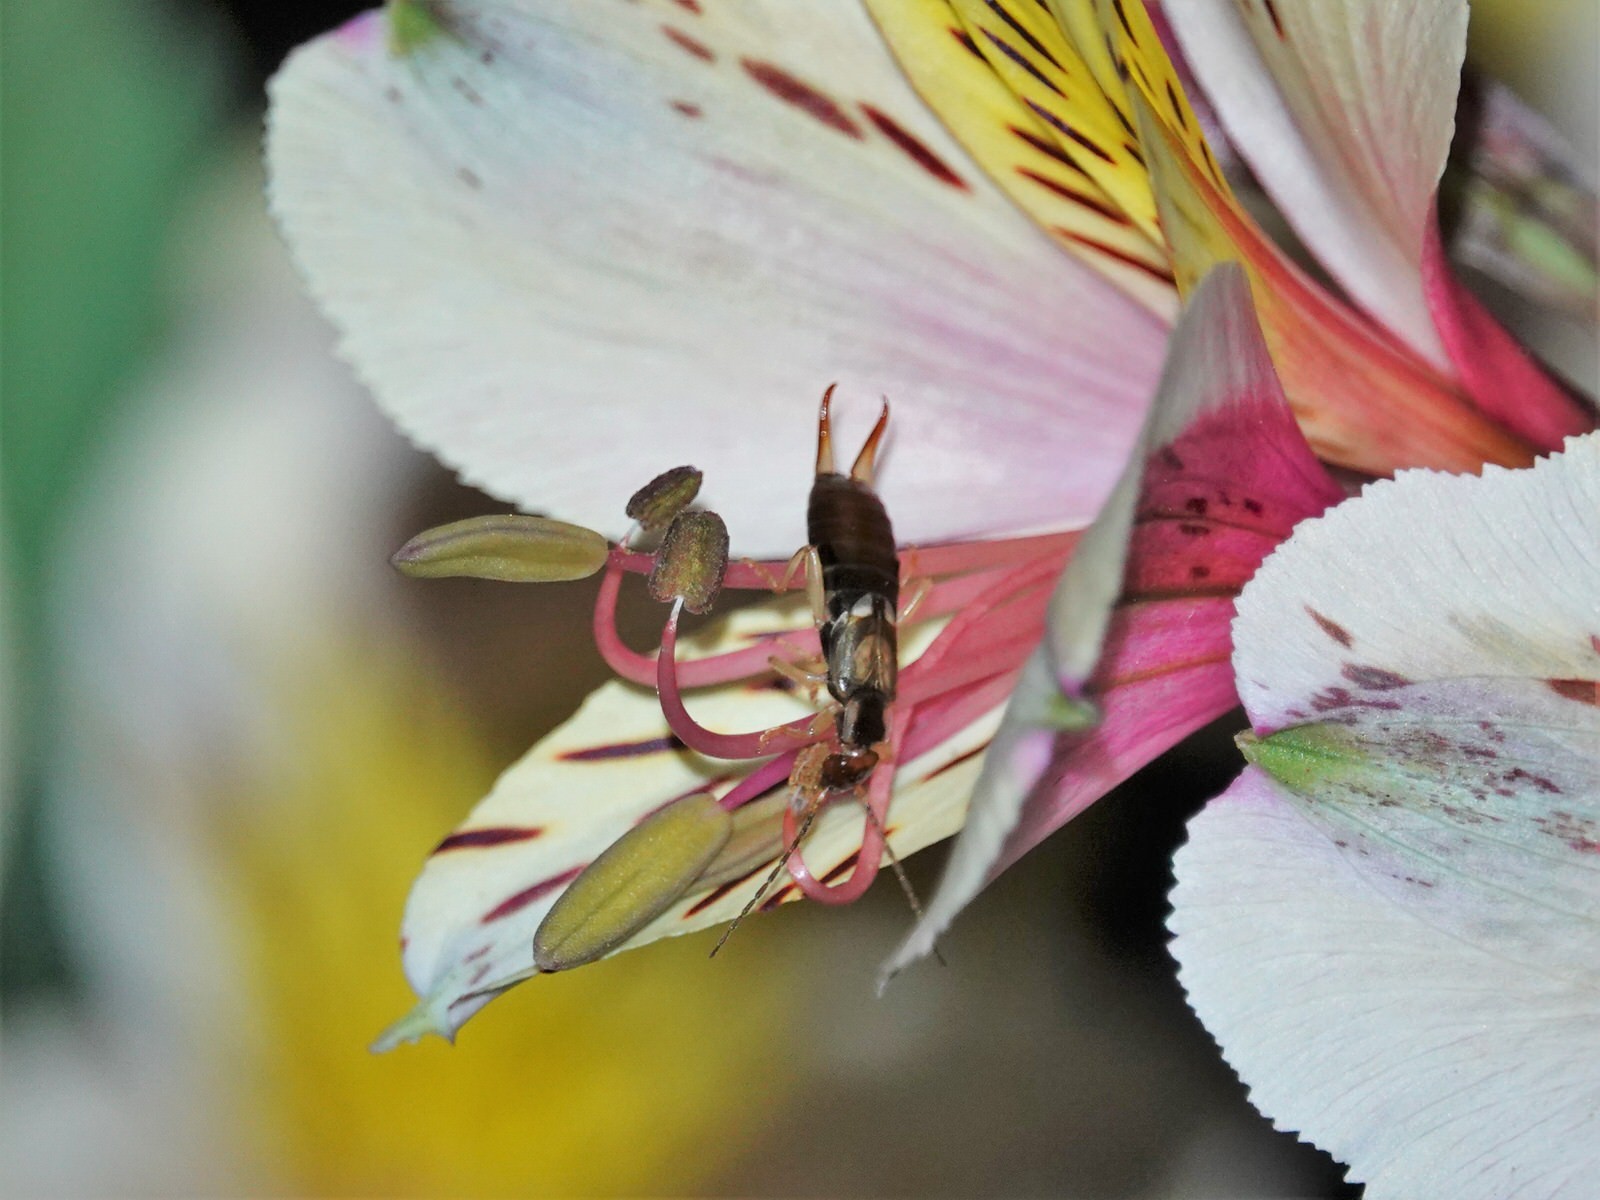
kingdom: Animalia
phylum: Arthropoda
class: Insecta
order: Dermaptera
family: Forficulidae
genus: Forficula
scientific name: Forficula
